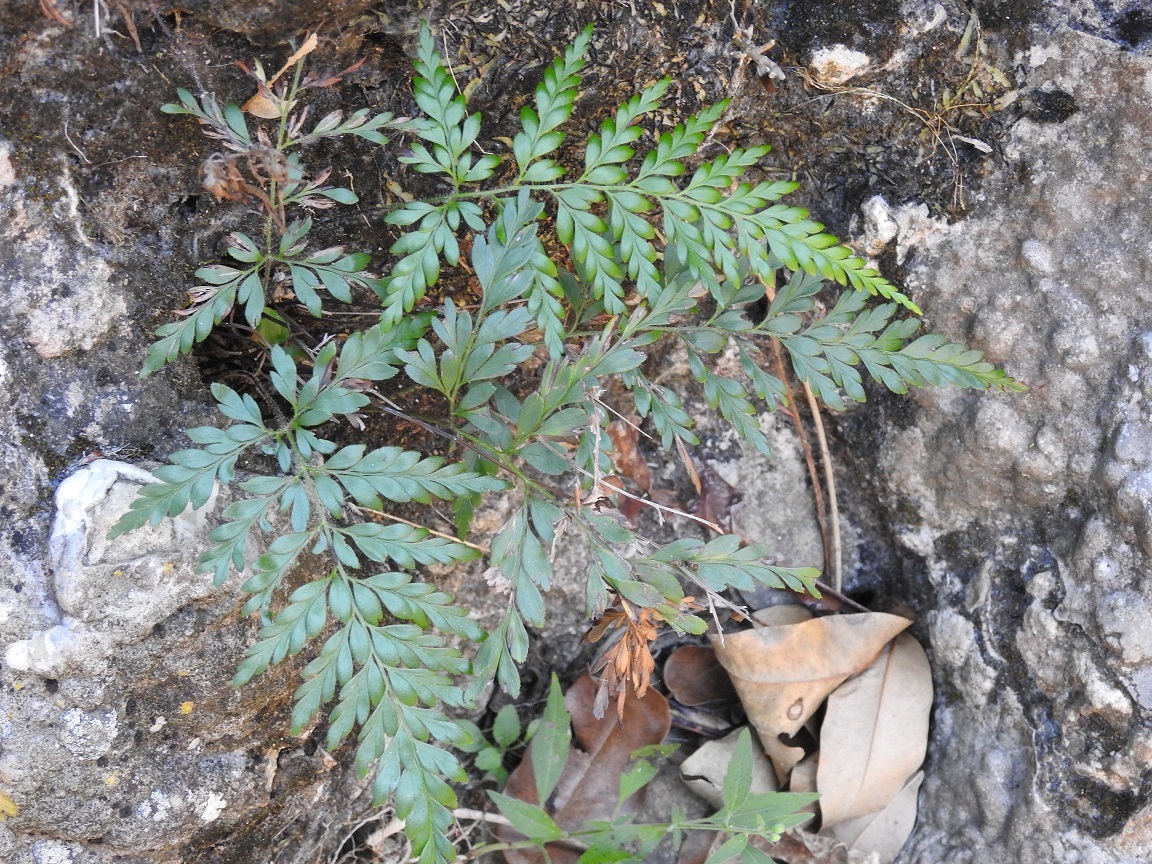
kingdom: Plantae
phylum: Tracheophyta
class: Polypodiopsida
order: Schizaeales
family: Anemiaceae
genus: Anemia
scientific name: Anemia adiantifolia
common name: Pine fern
